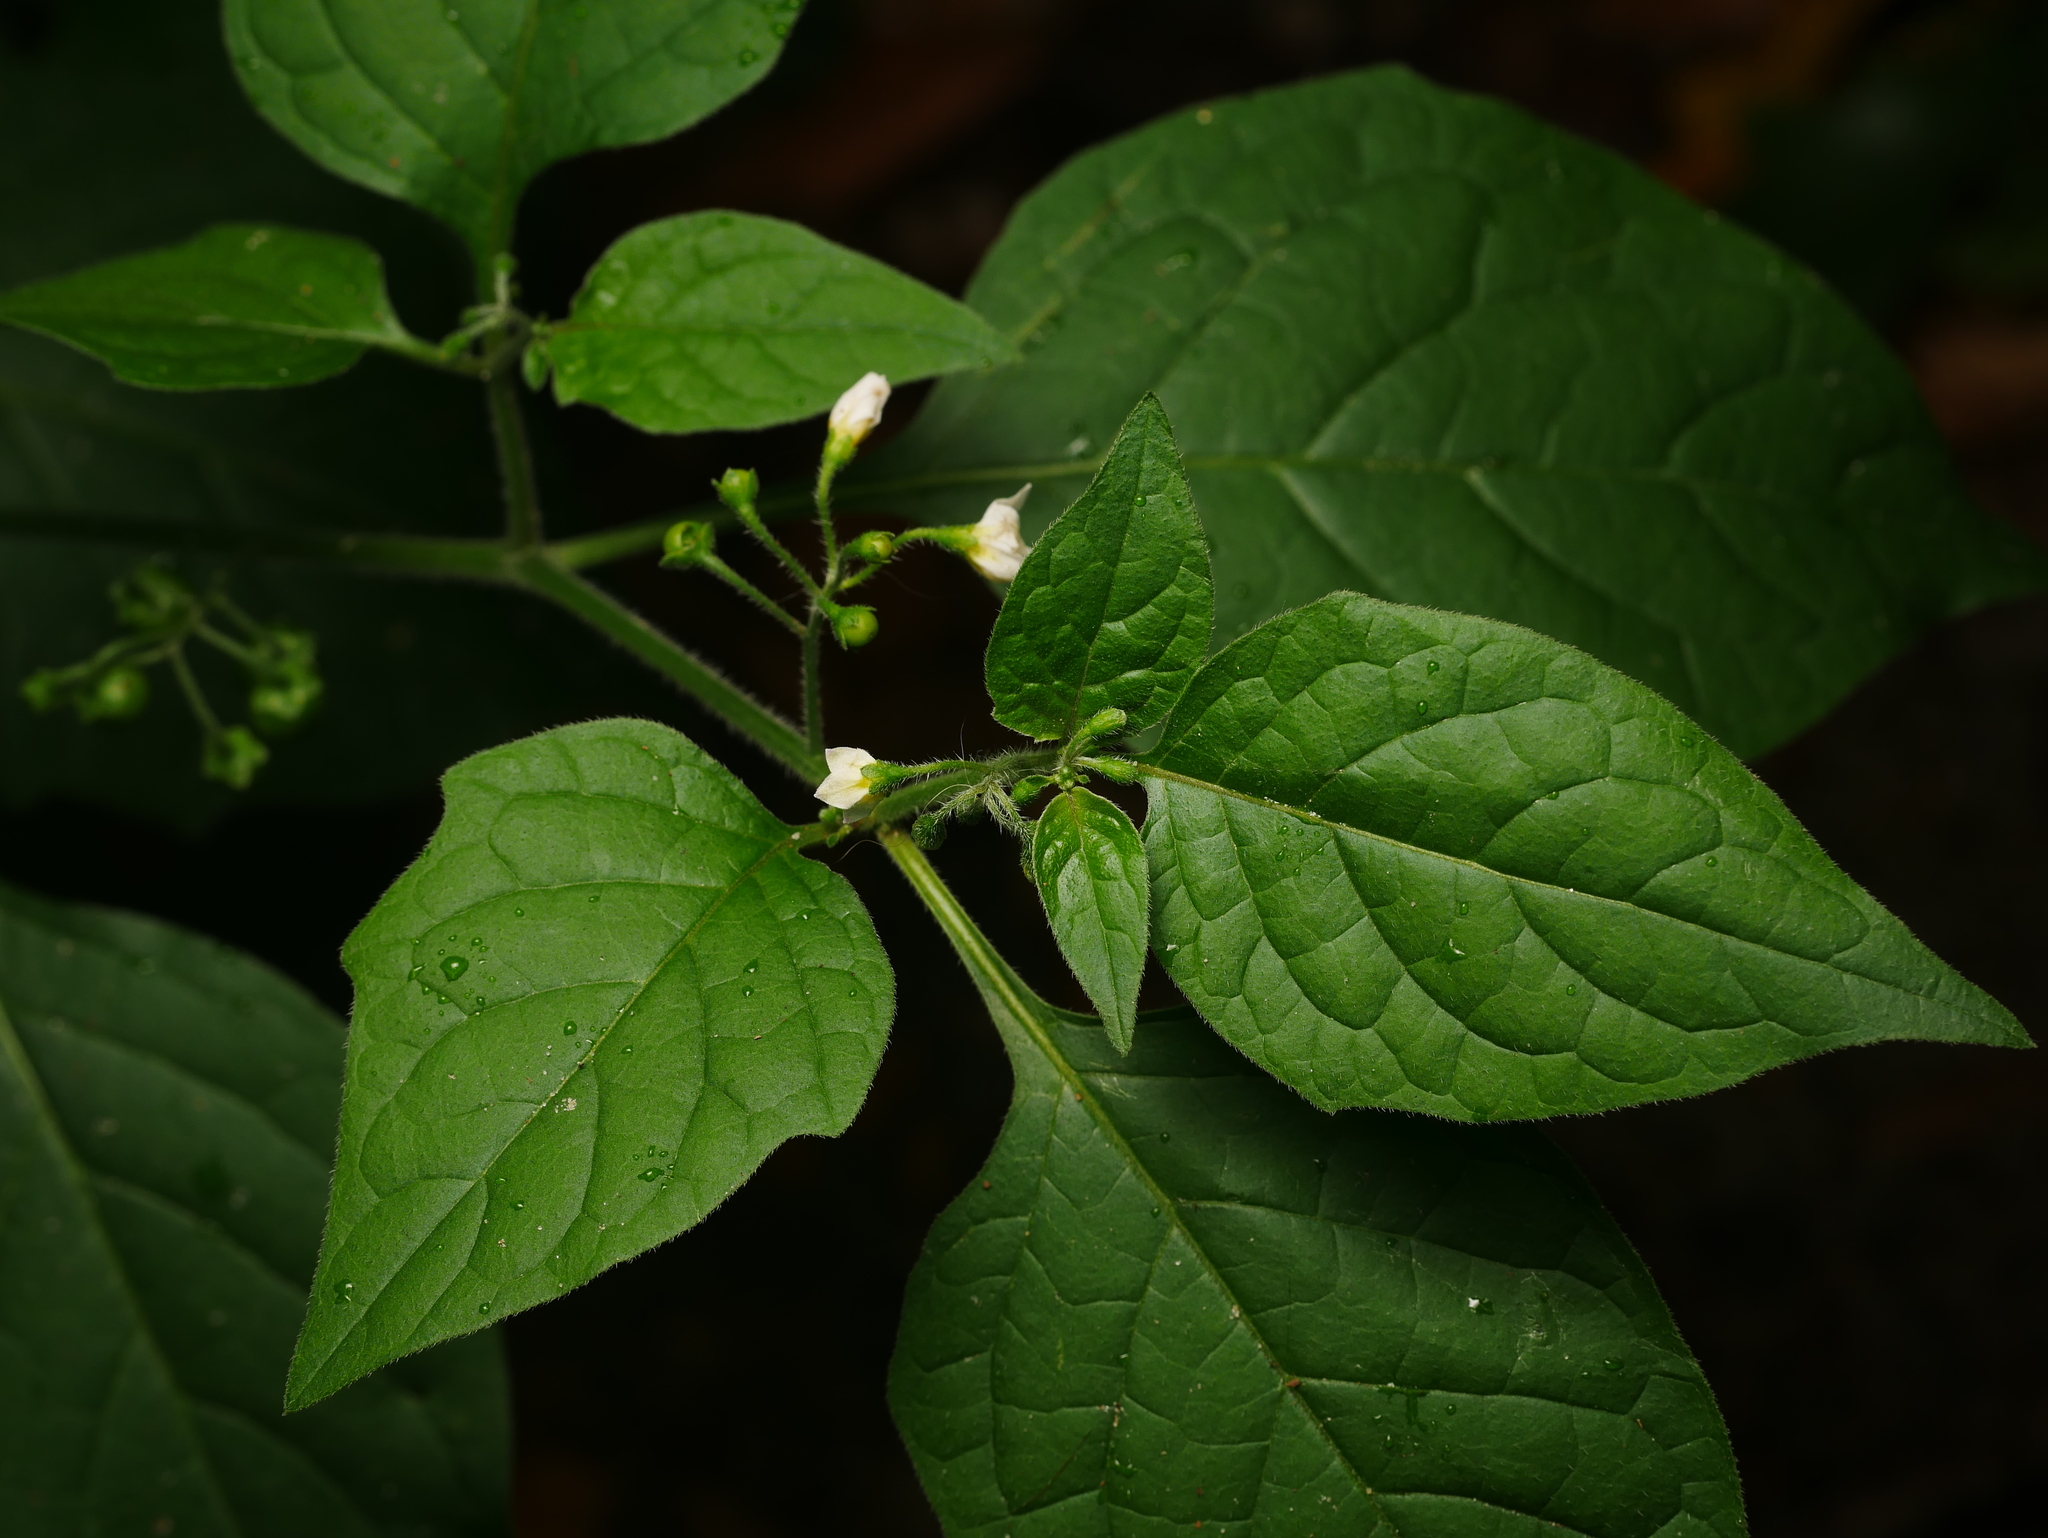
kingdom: Plantae
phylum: Tracheophyta
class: Magnoliopsida
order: Solanales
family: Solanaceae
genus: Solanum
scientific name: Solanum nigrum
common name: Black nightshade
